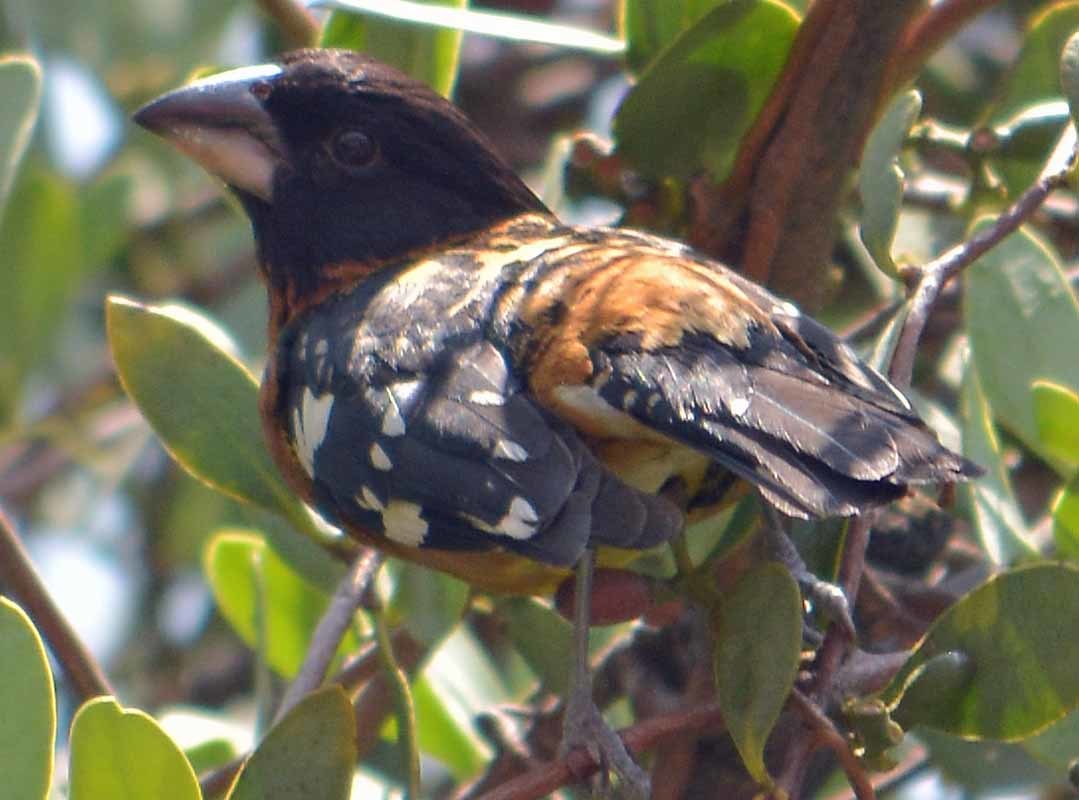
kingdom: Animalia
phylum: Chordata
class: Aves
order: Passeriformes
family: Cardinalidae
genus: Pheucticus
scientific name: Pheucticus melanocephalus
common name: Black-headed grosbeak
